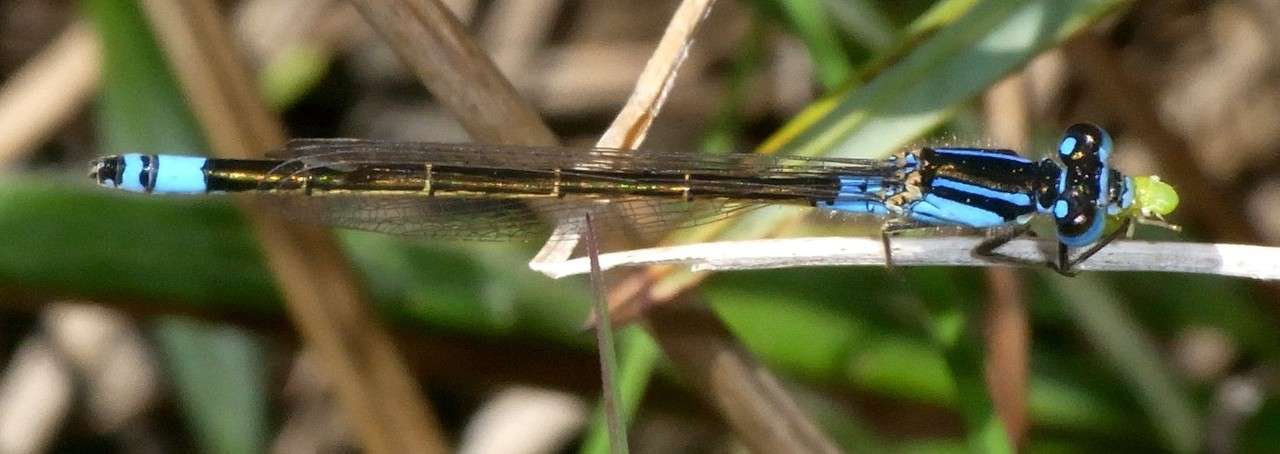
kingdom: Animalia
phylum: Arthropoda
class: Insecta
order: Odonata
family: Coenagrionidae
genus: Ischnura
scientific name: Ischnura heterosticta
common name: Common bluetail
